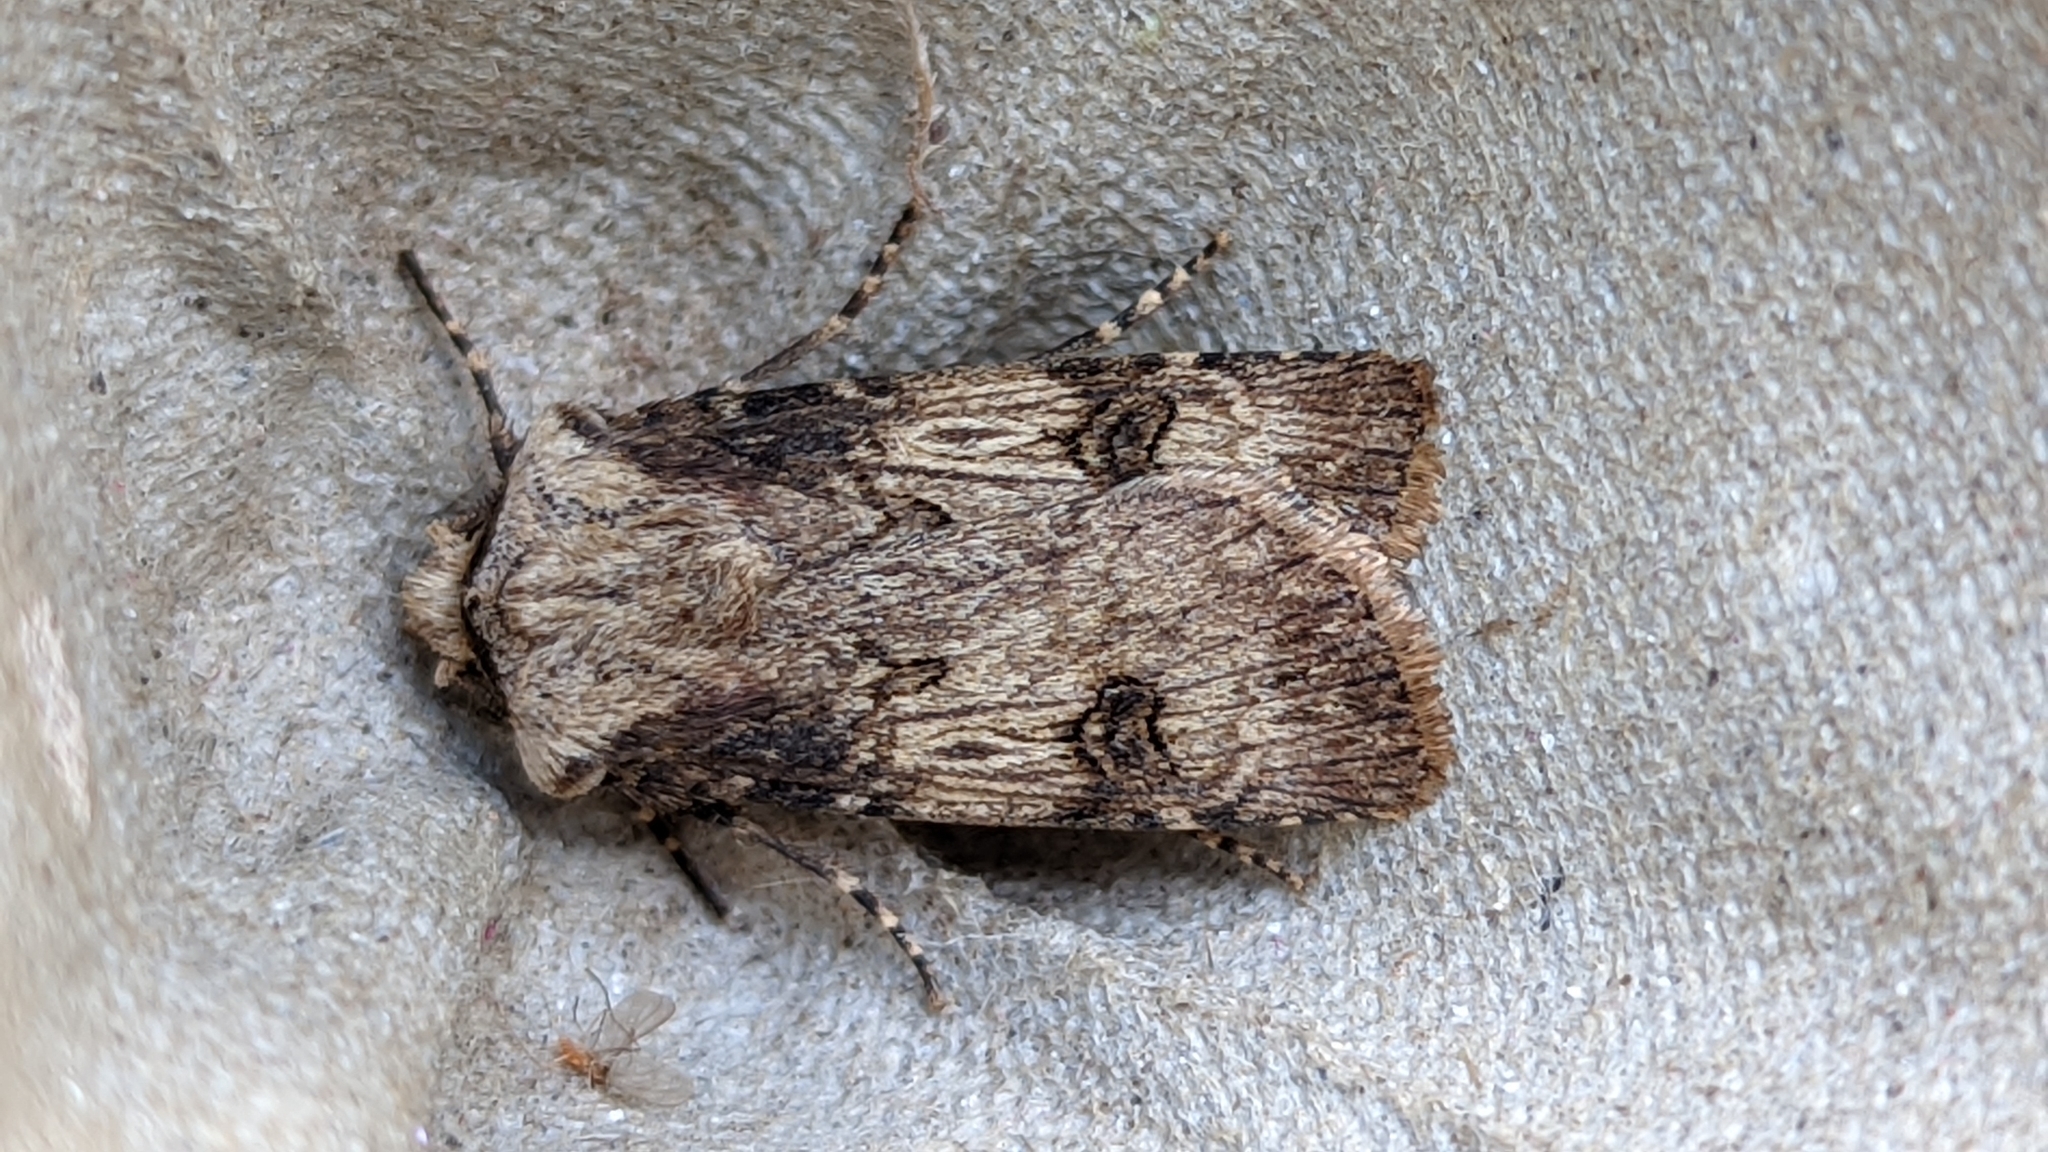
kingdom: Animalia
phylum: Arthropoda
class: Insecta
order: Lepidoptera
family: Noctuidae
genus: Agrotis
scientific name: Agrotis puta
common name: Shuttle-shaped dart
